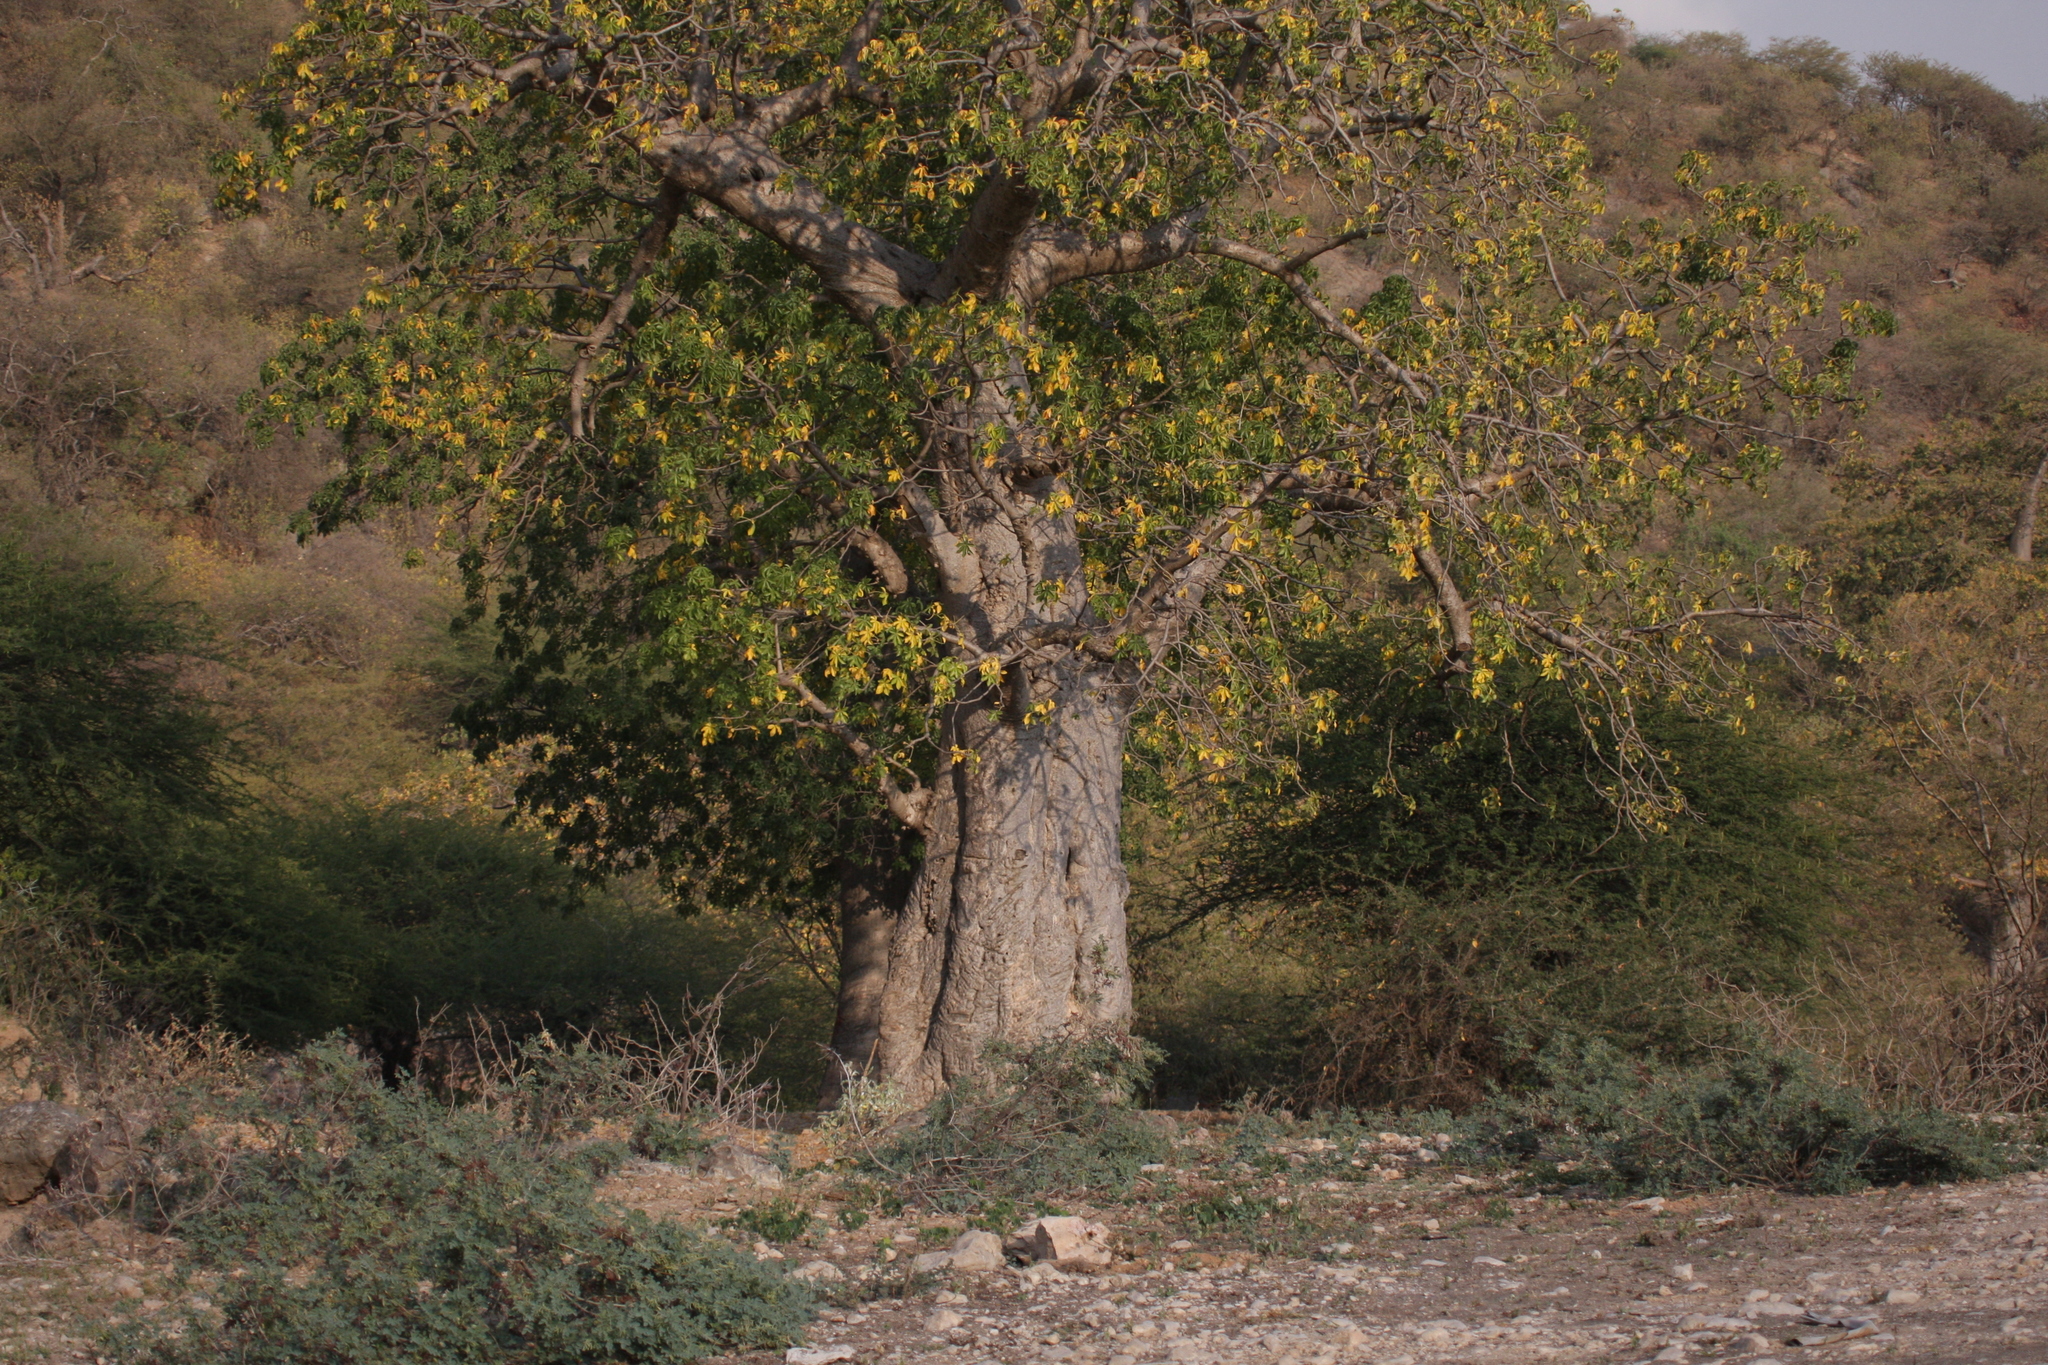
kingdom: Plantae
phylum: Tracheophyta
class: Magnoliopsida
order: Malvales
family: Malvaceae
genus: Adansonia
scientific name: Adansonia digitata
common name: Dead-rat-tree
